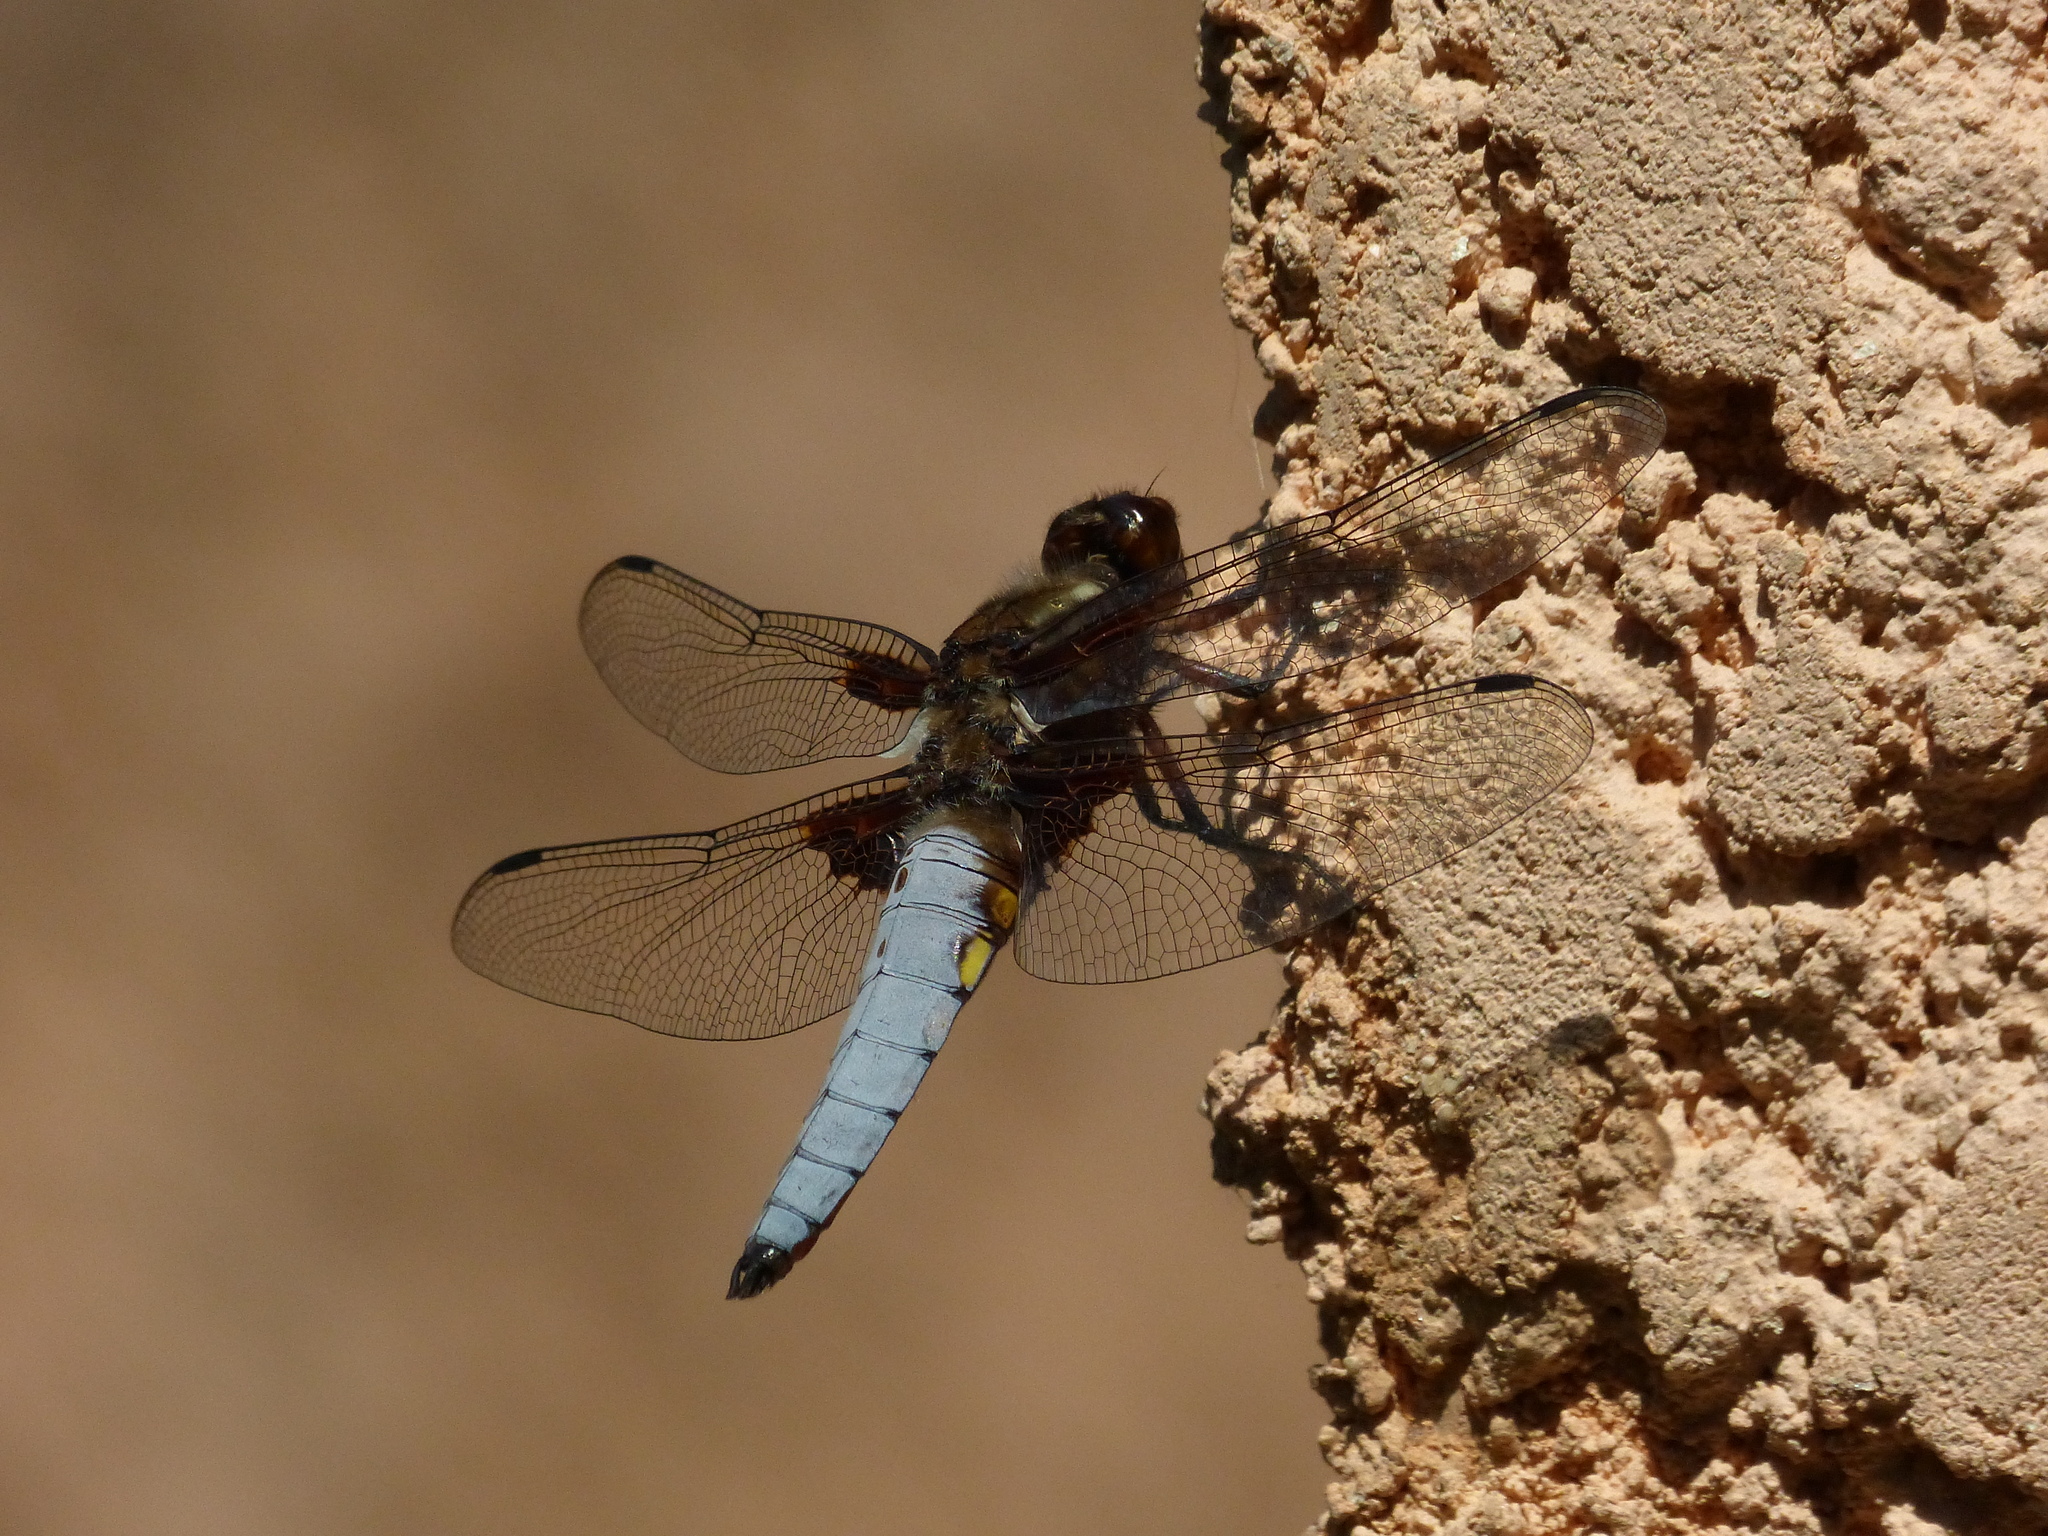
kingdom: Animalia
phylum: Arthropoda
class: Insecta
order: Odonata
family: Libellulidae
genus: Libellula
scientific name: Libellula depressa
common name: Broad-bodied chaser
